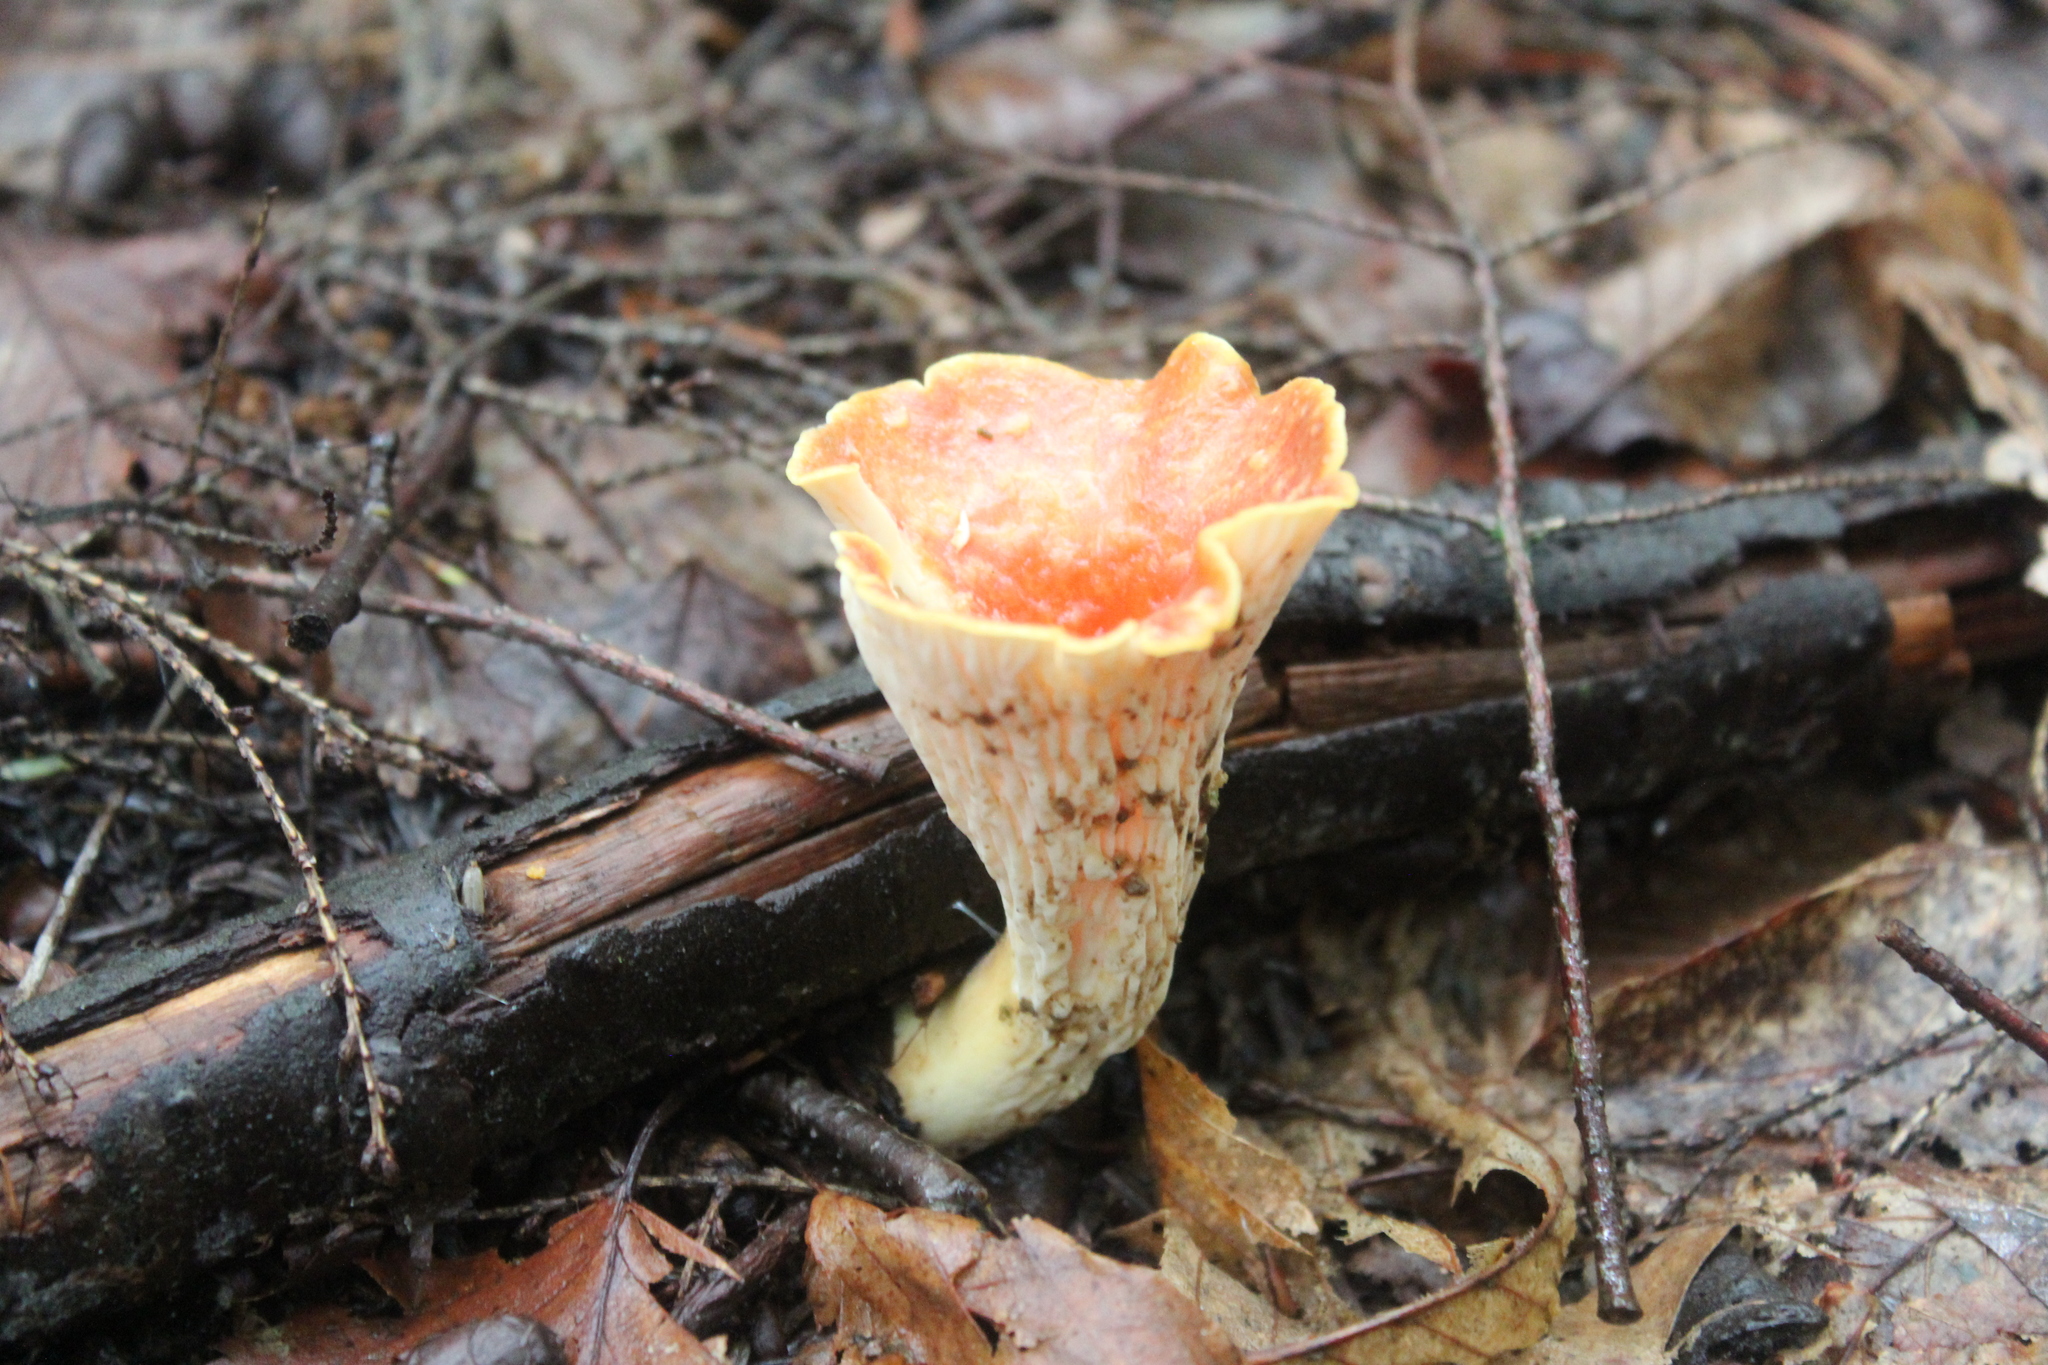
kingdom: Fungi
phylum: Basidiomycota
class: Agaricomycetes
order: Gomphales
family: Gomphaceae
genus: Turbinellus
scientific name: Turbinellus floccosus
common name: Scaly chanterelle
